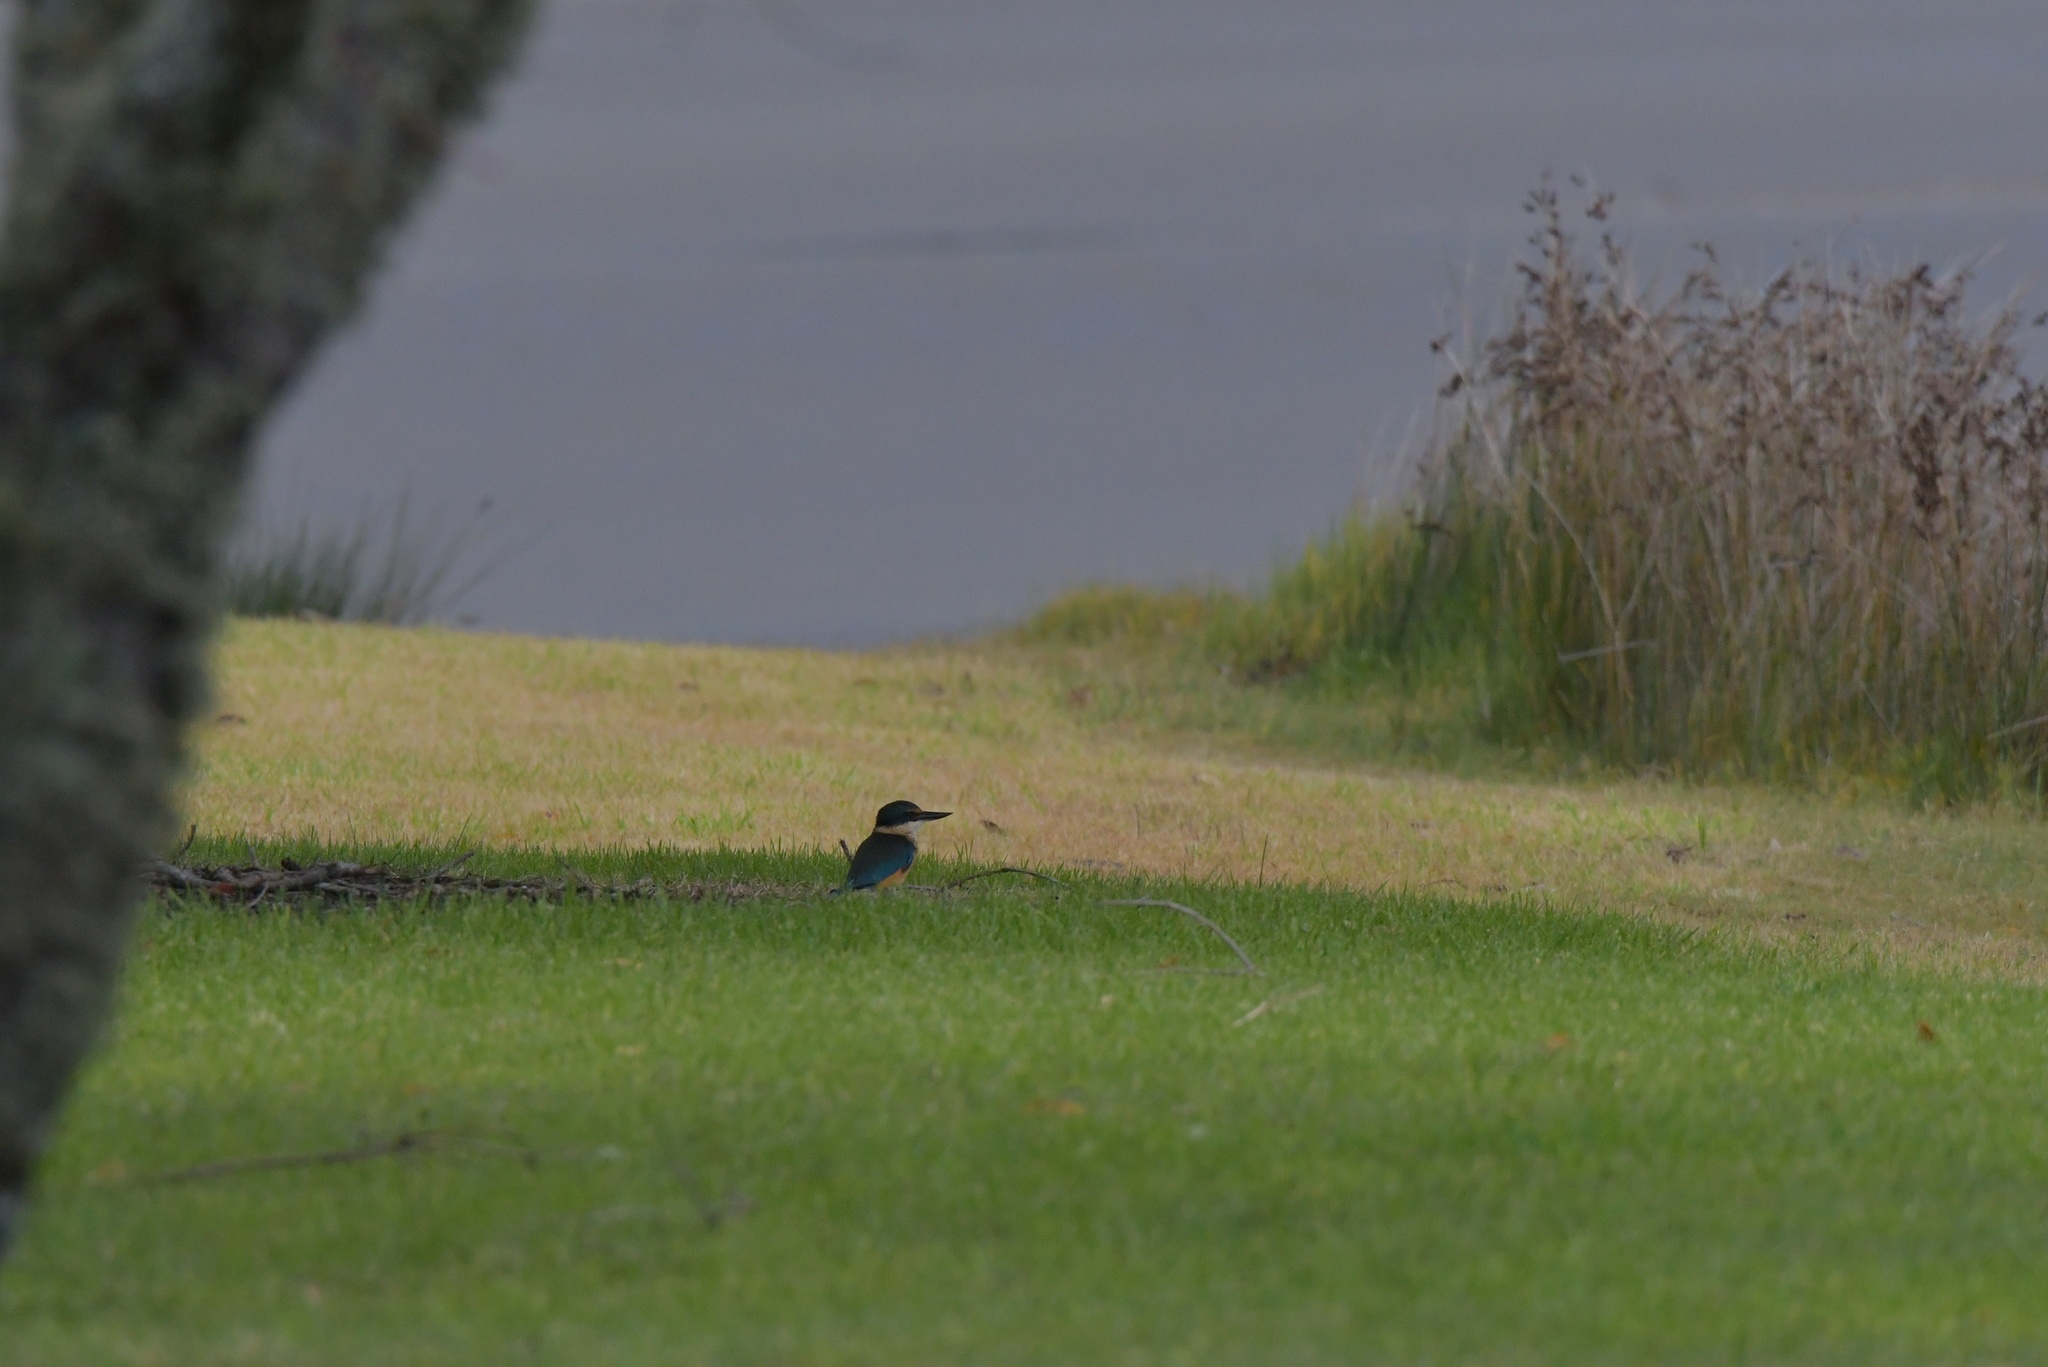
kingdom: Animalia
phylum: Chordata
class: Aves
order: Coraciiformes
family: Alcedinidae
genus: Todiramphus
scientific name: Todiramphus sanctus
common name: Sacred kingfisher
